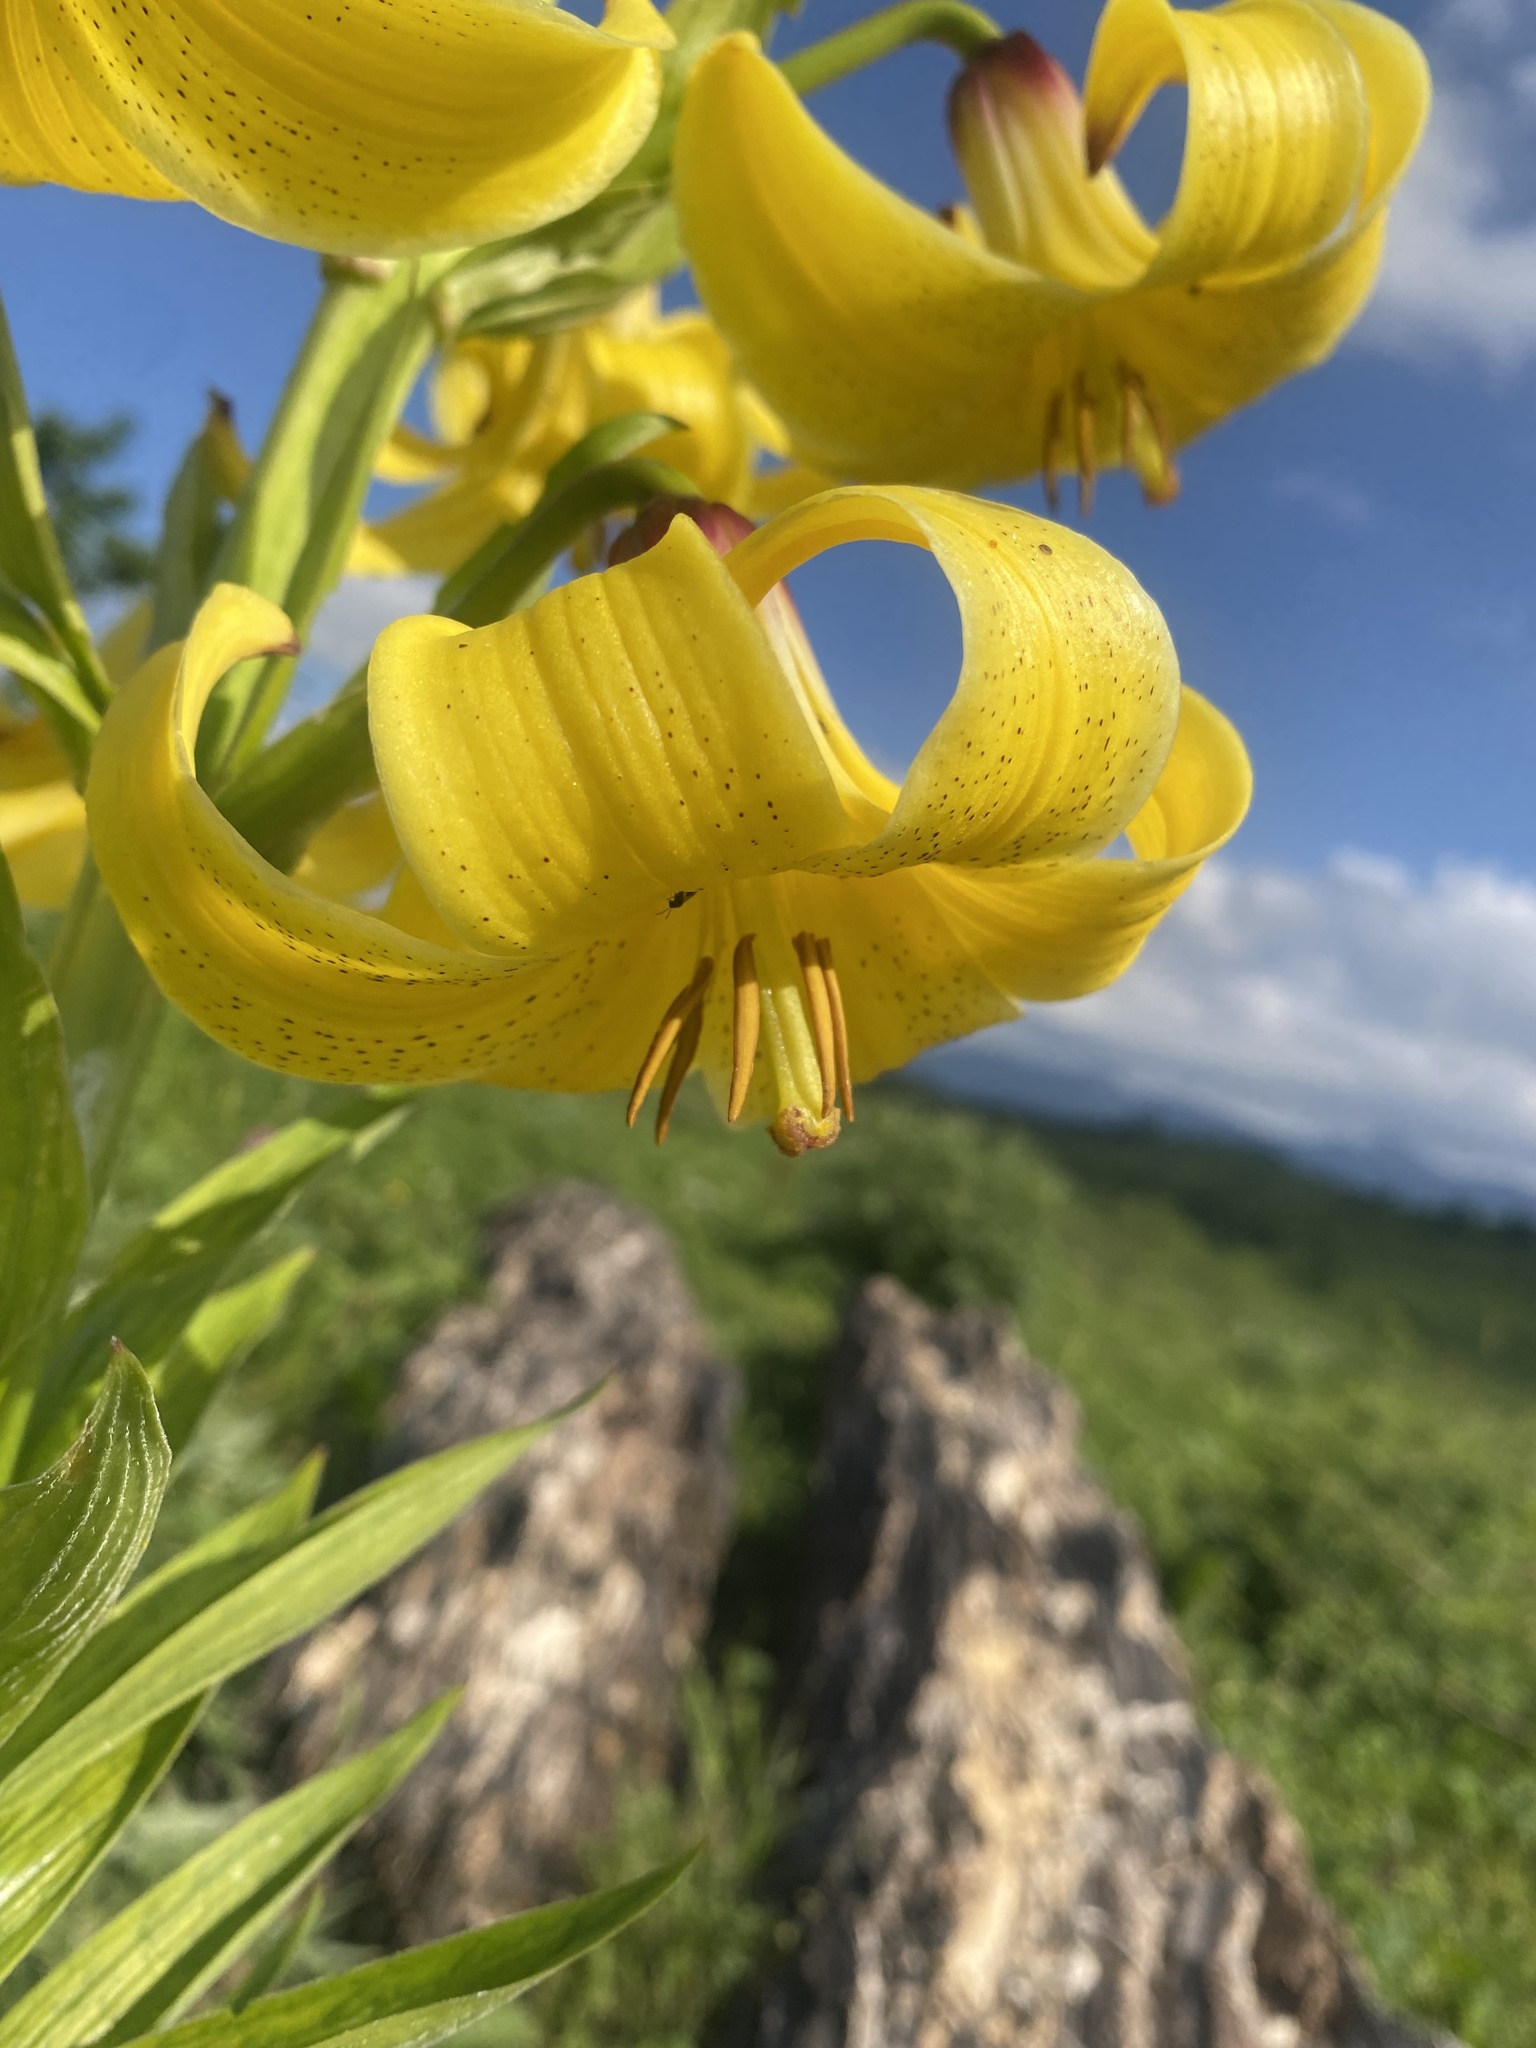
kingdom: Plantae
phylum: Tracheophyta
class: Liliopsida
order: Liliales
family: Liliaceae
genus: Lilium
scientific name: Lilium monadelphum
